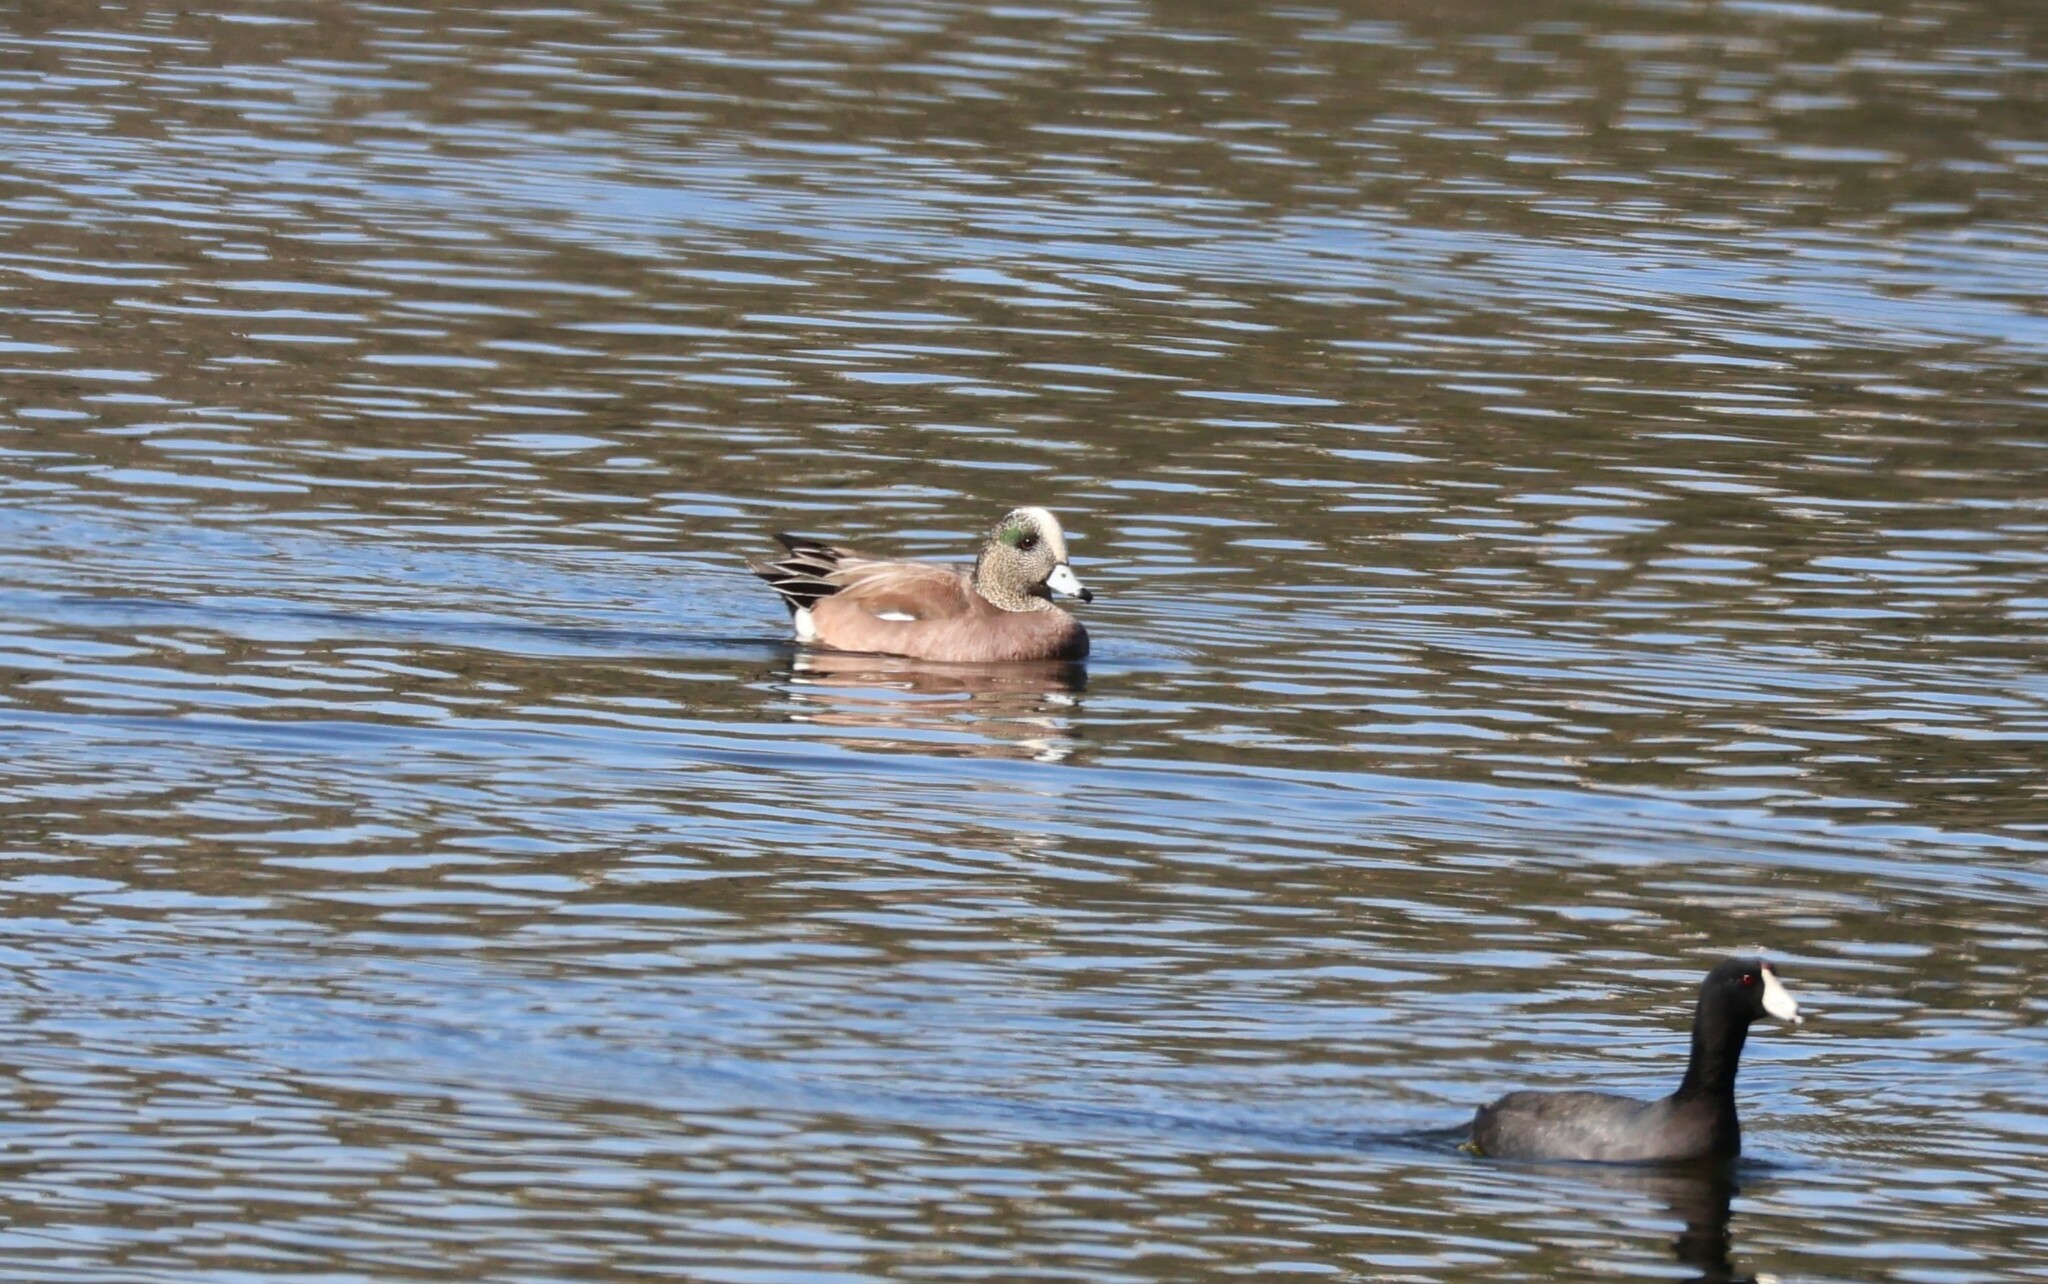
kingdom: Animalia
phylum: Chordata
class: Aves
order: Anseriformes
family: Anatidae
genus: Mareca
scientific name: Mareca americana
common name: American wigeon
